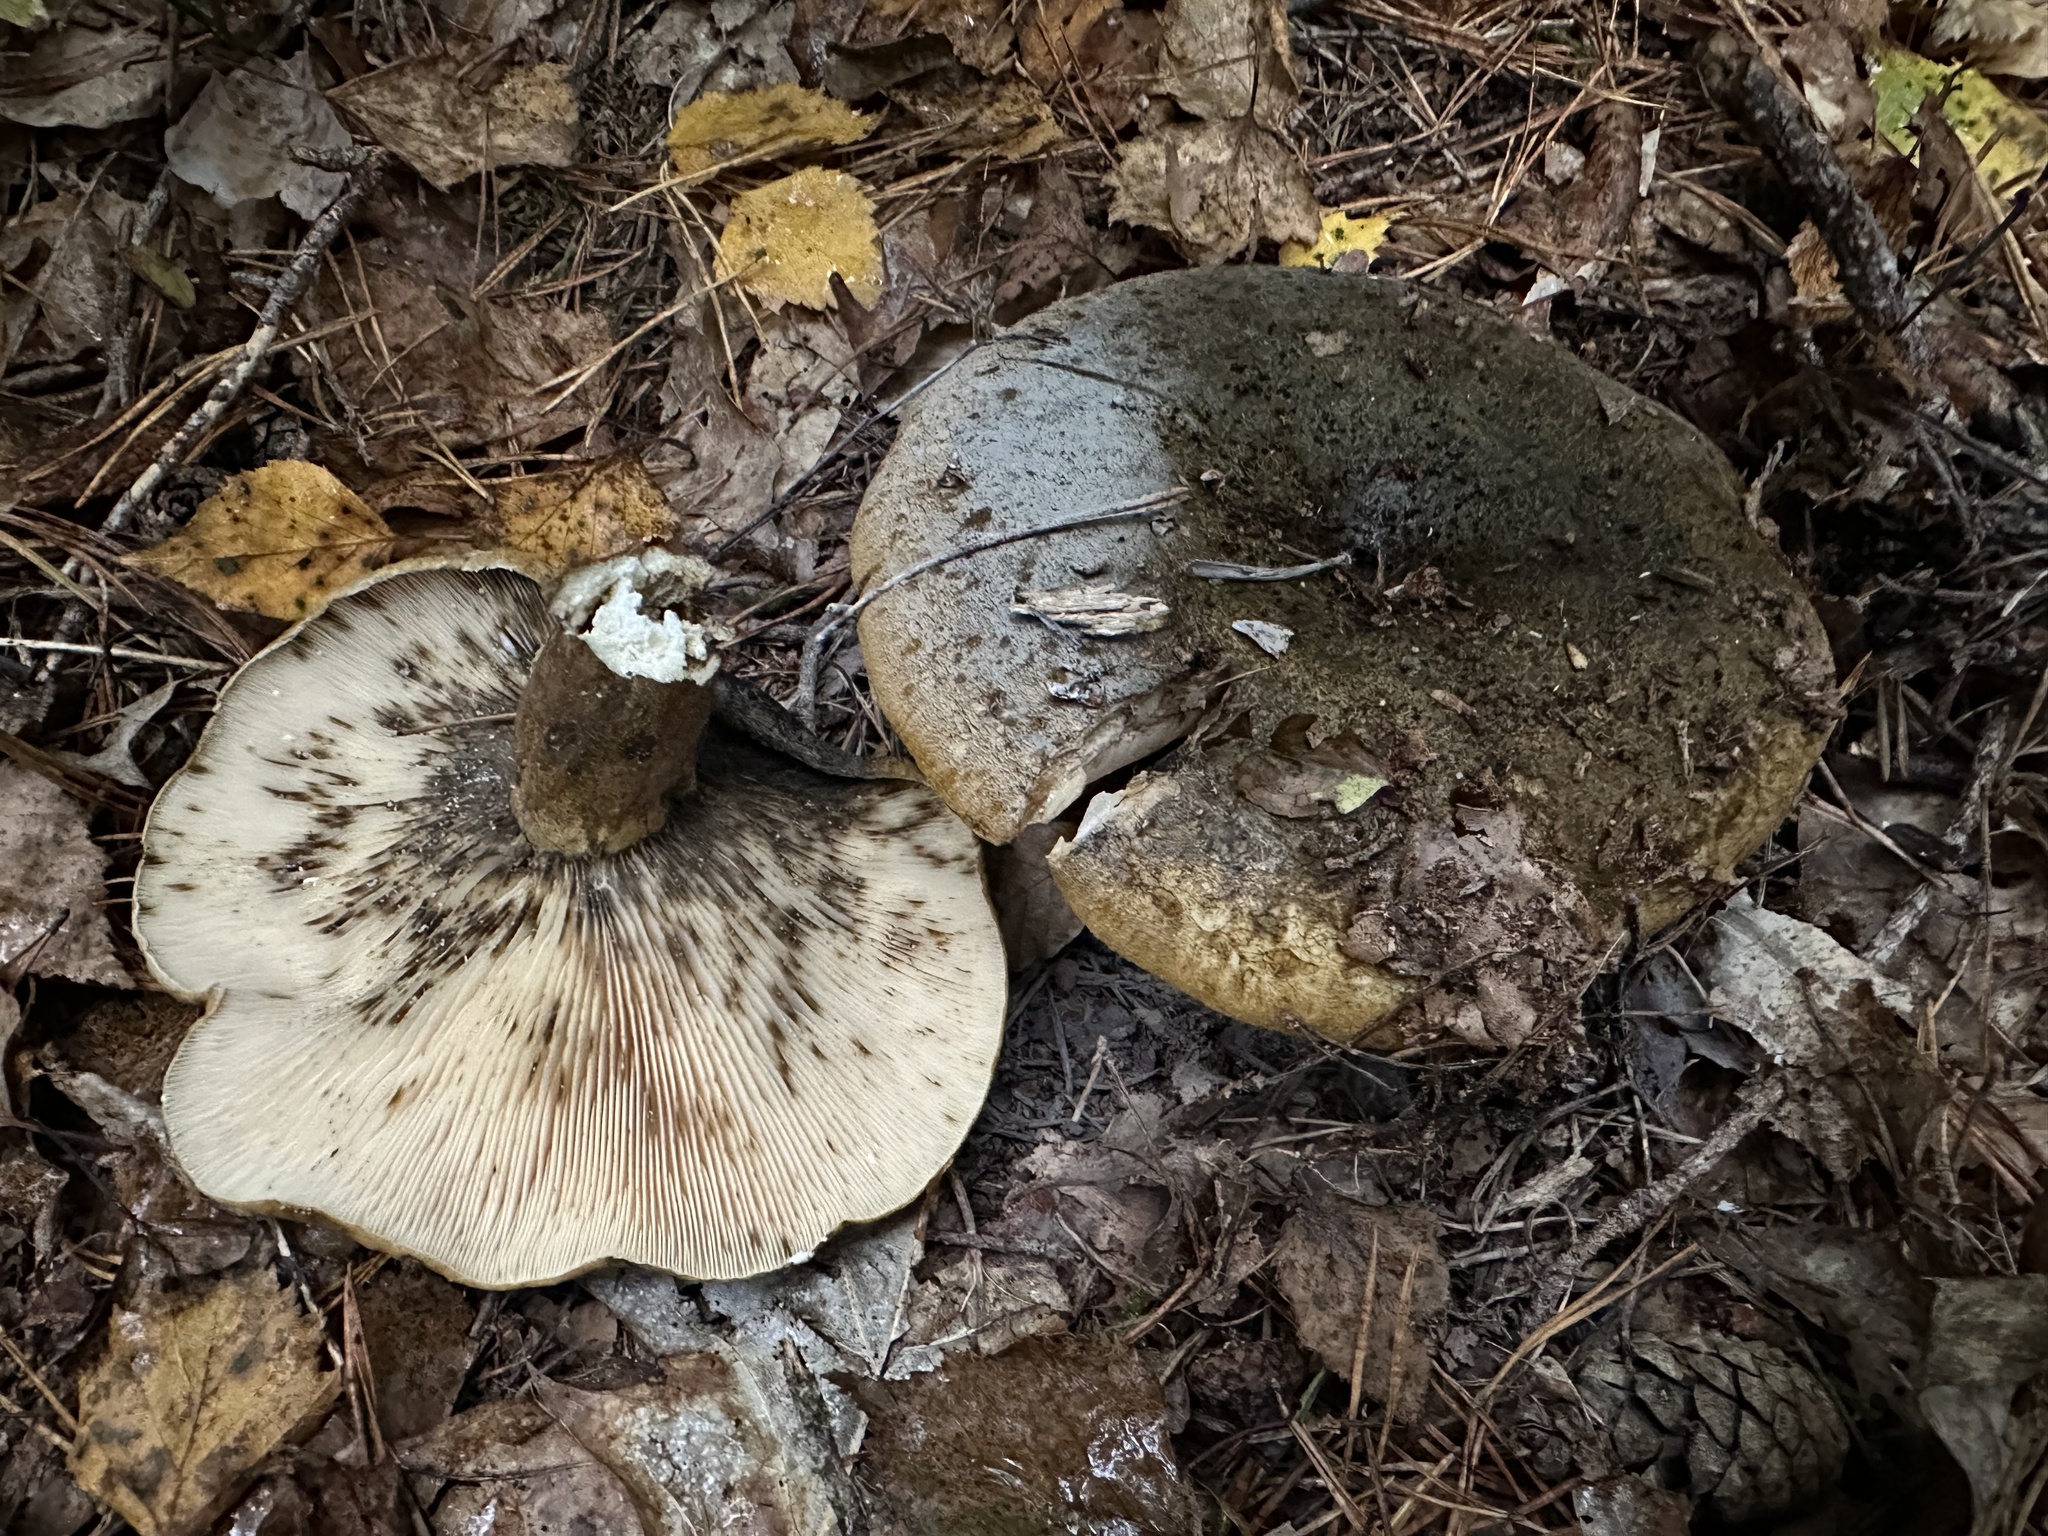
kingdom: Fungi
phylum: Basidiomycota
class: Agaricomycetes
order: Russulales
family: Russulaceae
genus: Lactarius
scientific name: Lactarius turpis
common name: Ugly milk-cap
